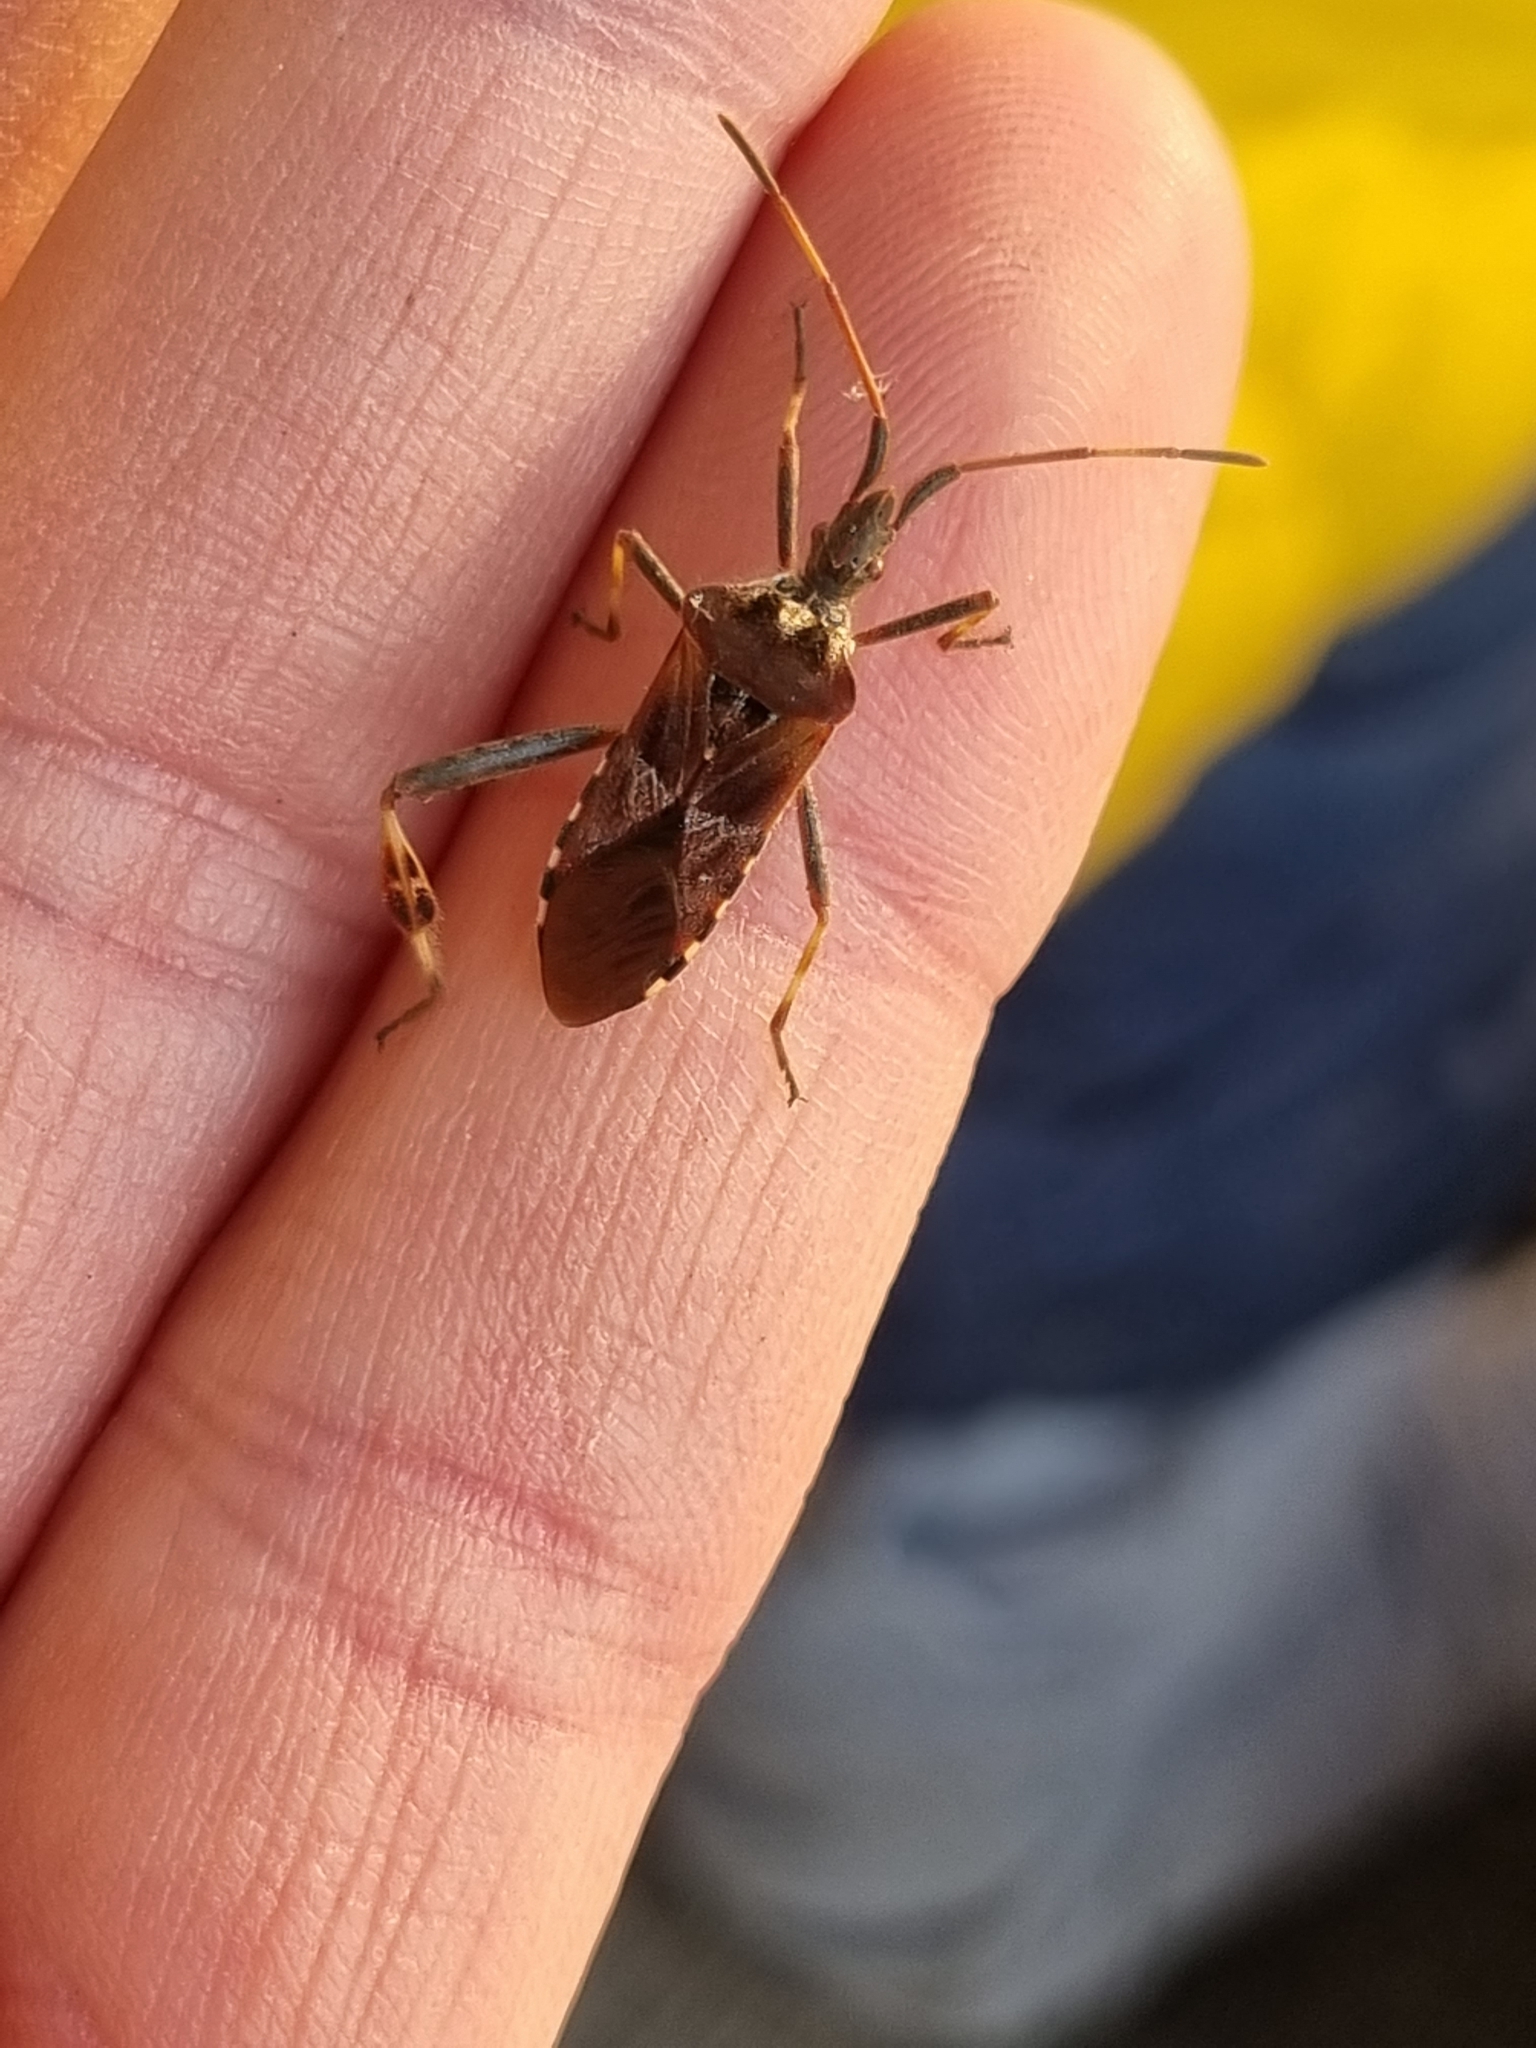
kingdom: Animalia
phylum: Arthropoda
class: Insecta
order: Hemiptera
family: Coreidae
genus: Leptoglossus
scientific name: Leptoglossus occidentalis
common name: Western conifer-seed bug
